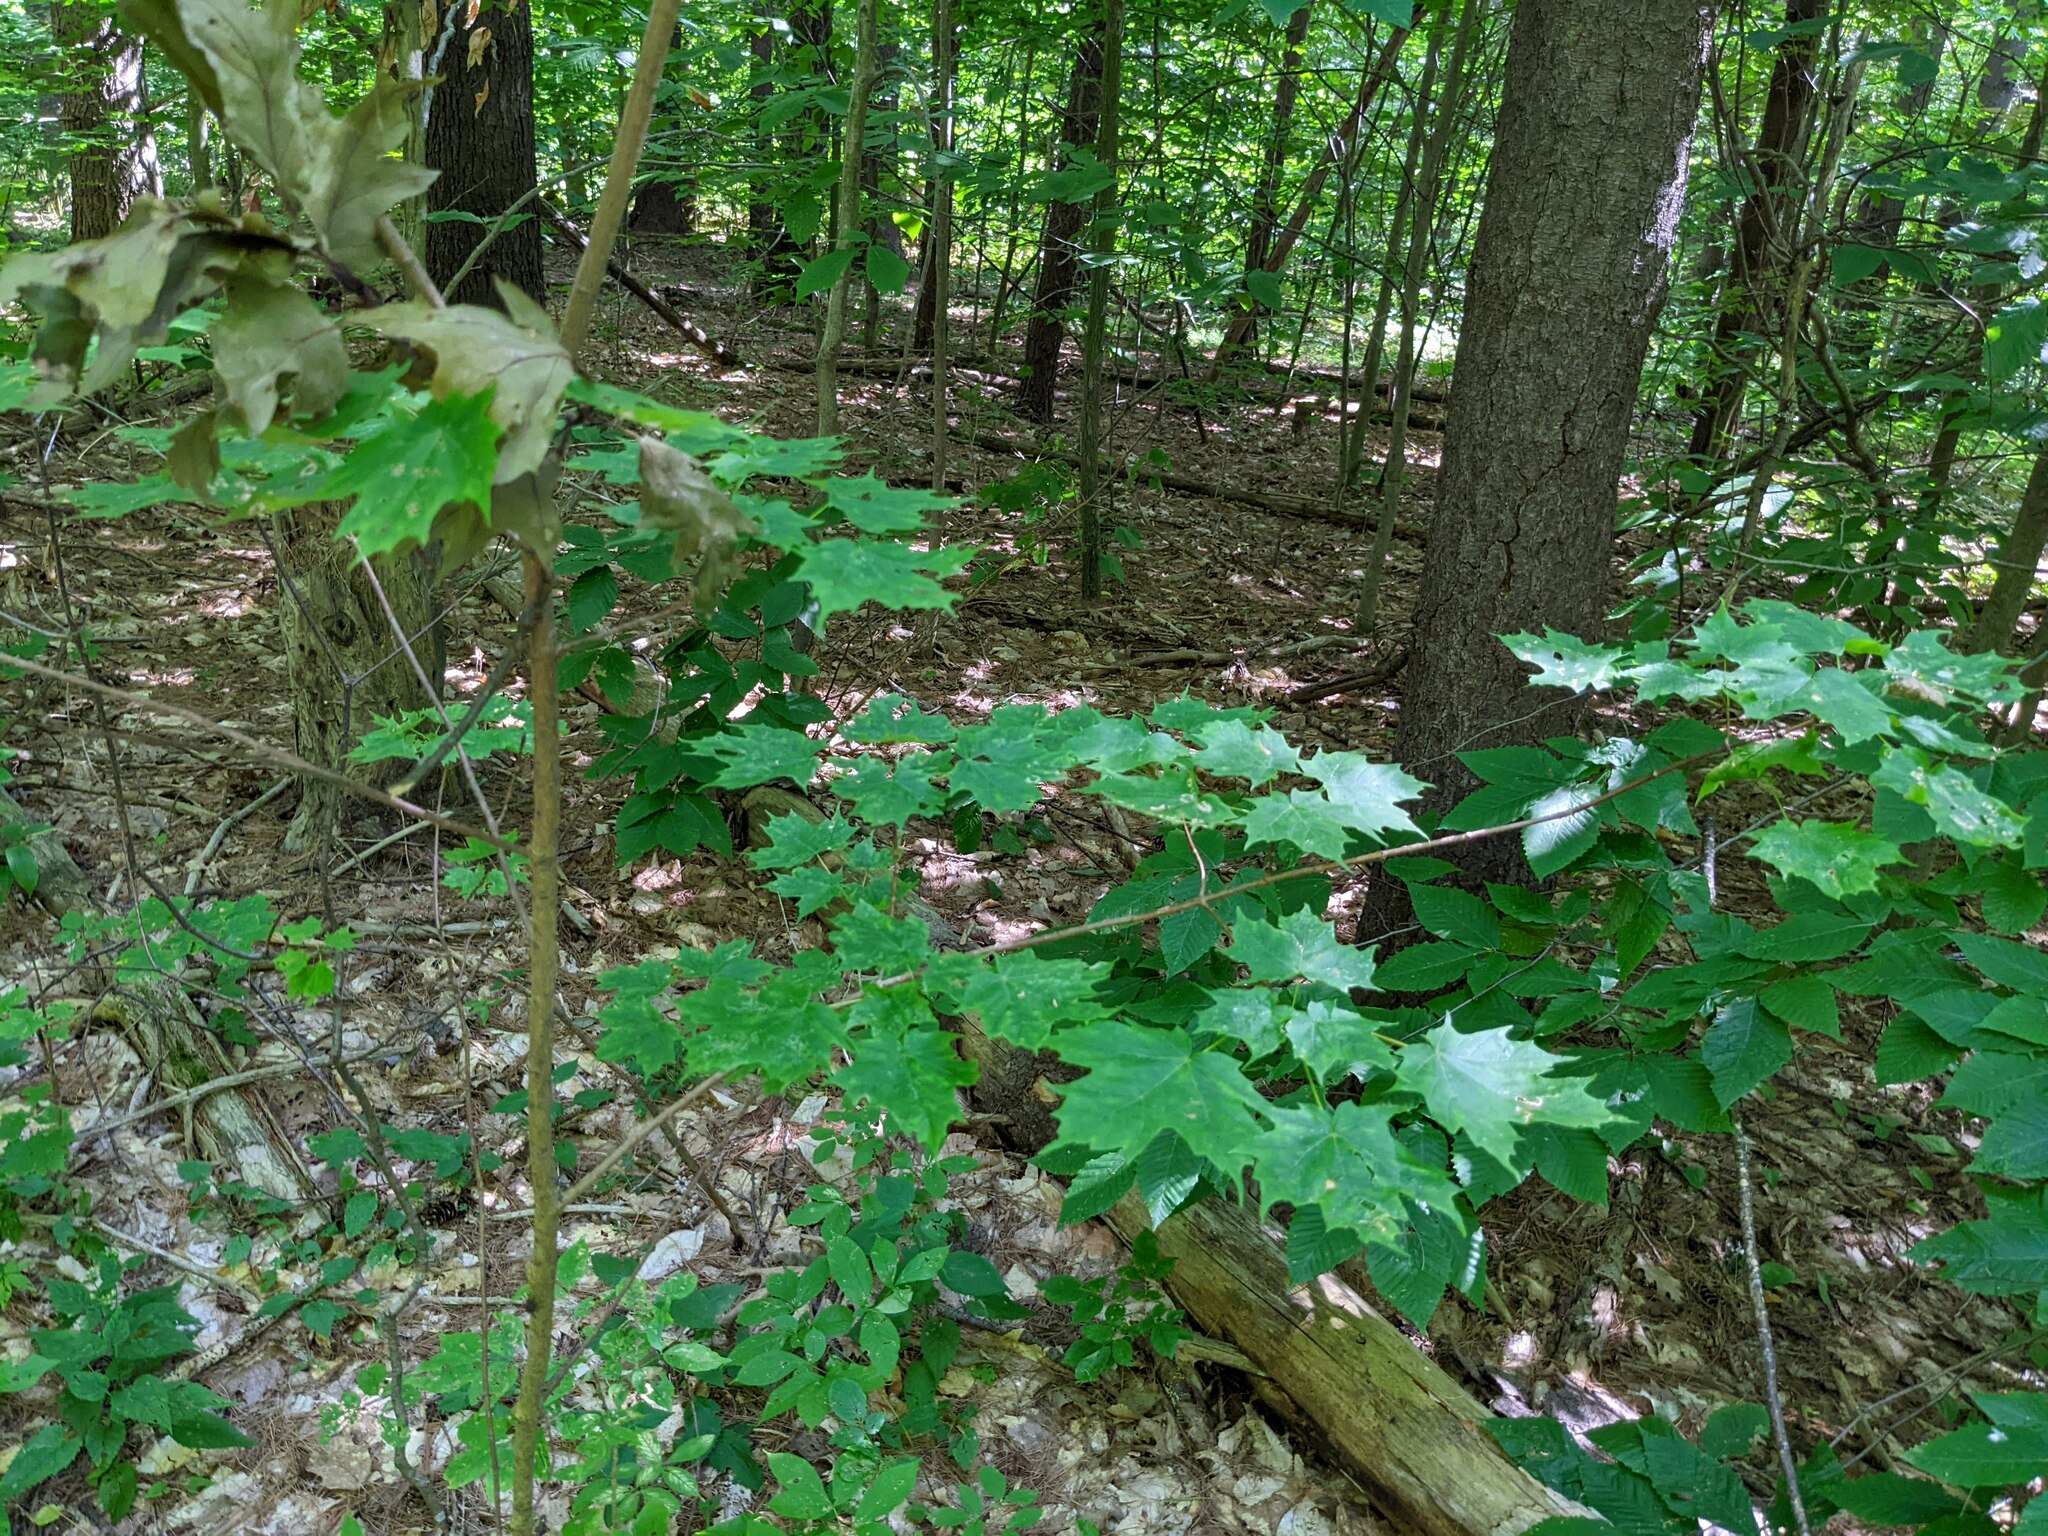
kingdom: Plantae
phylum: Tracheophyta
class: Magnoliopsida
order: Sapindales
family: Sapindaceae
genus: Acer
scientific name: Acer saccharum
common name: Sugar maple
